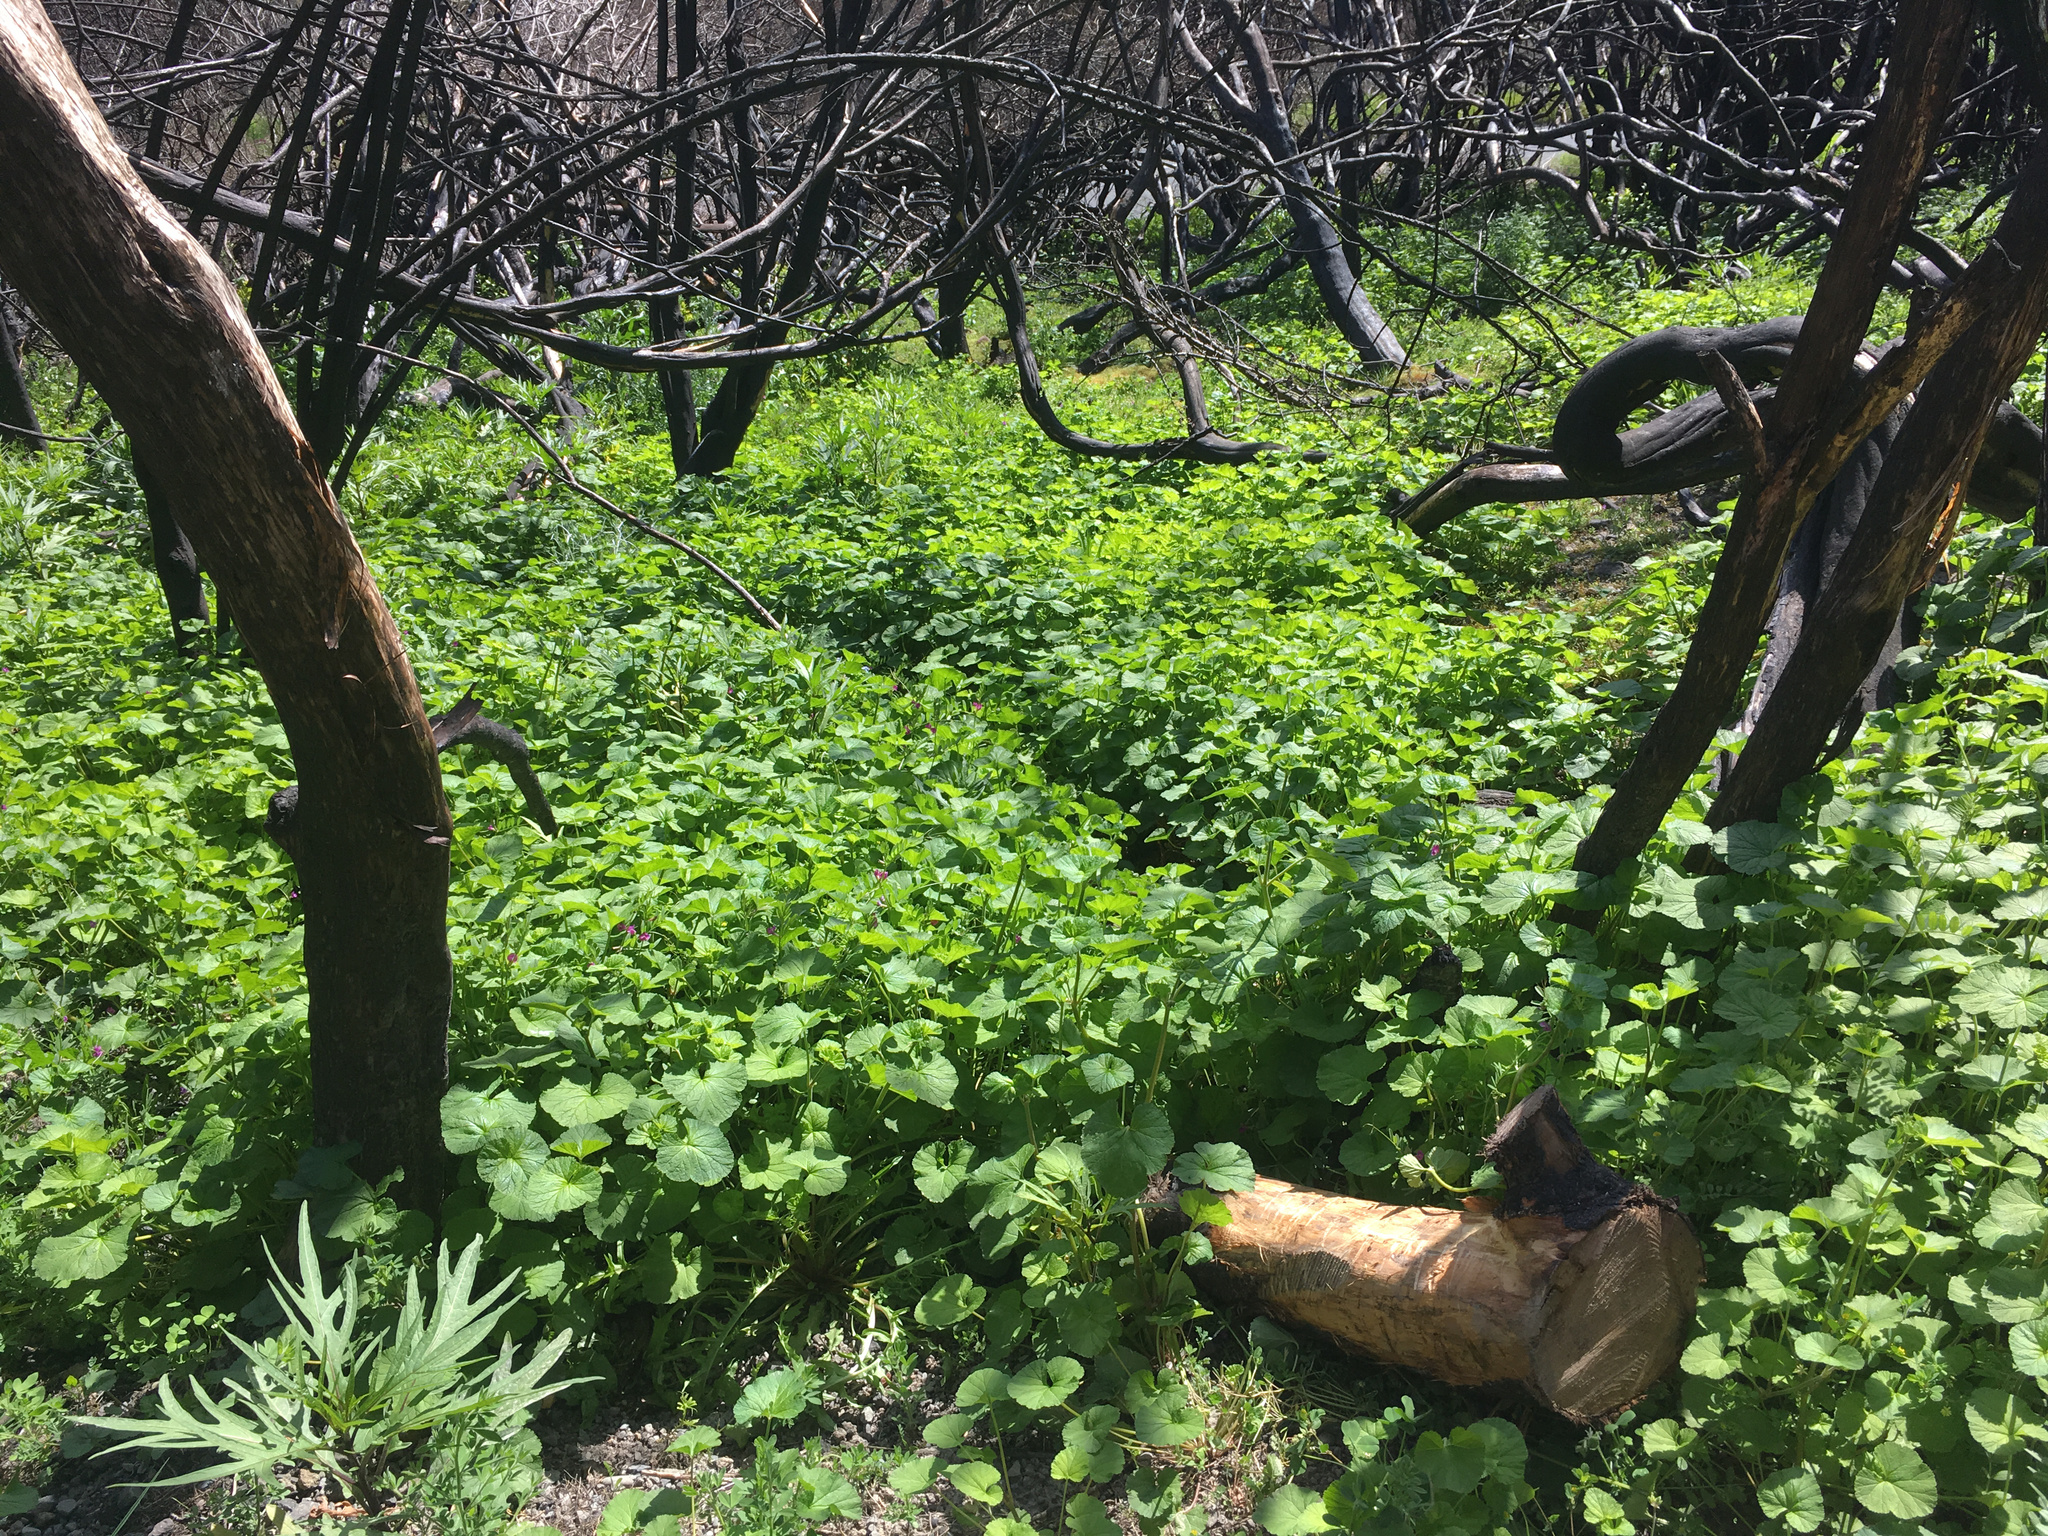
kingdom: Plantae
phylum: Tracheophyta
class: Magnoliopsida
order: Geraniales
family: Geraniaceae
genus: Pelargonium
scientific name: Pelargonium inodorum
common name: Kopata geranium
